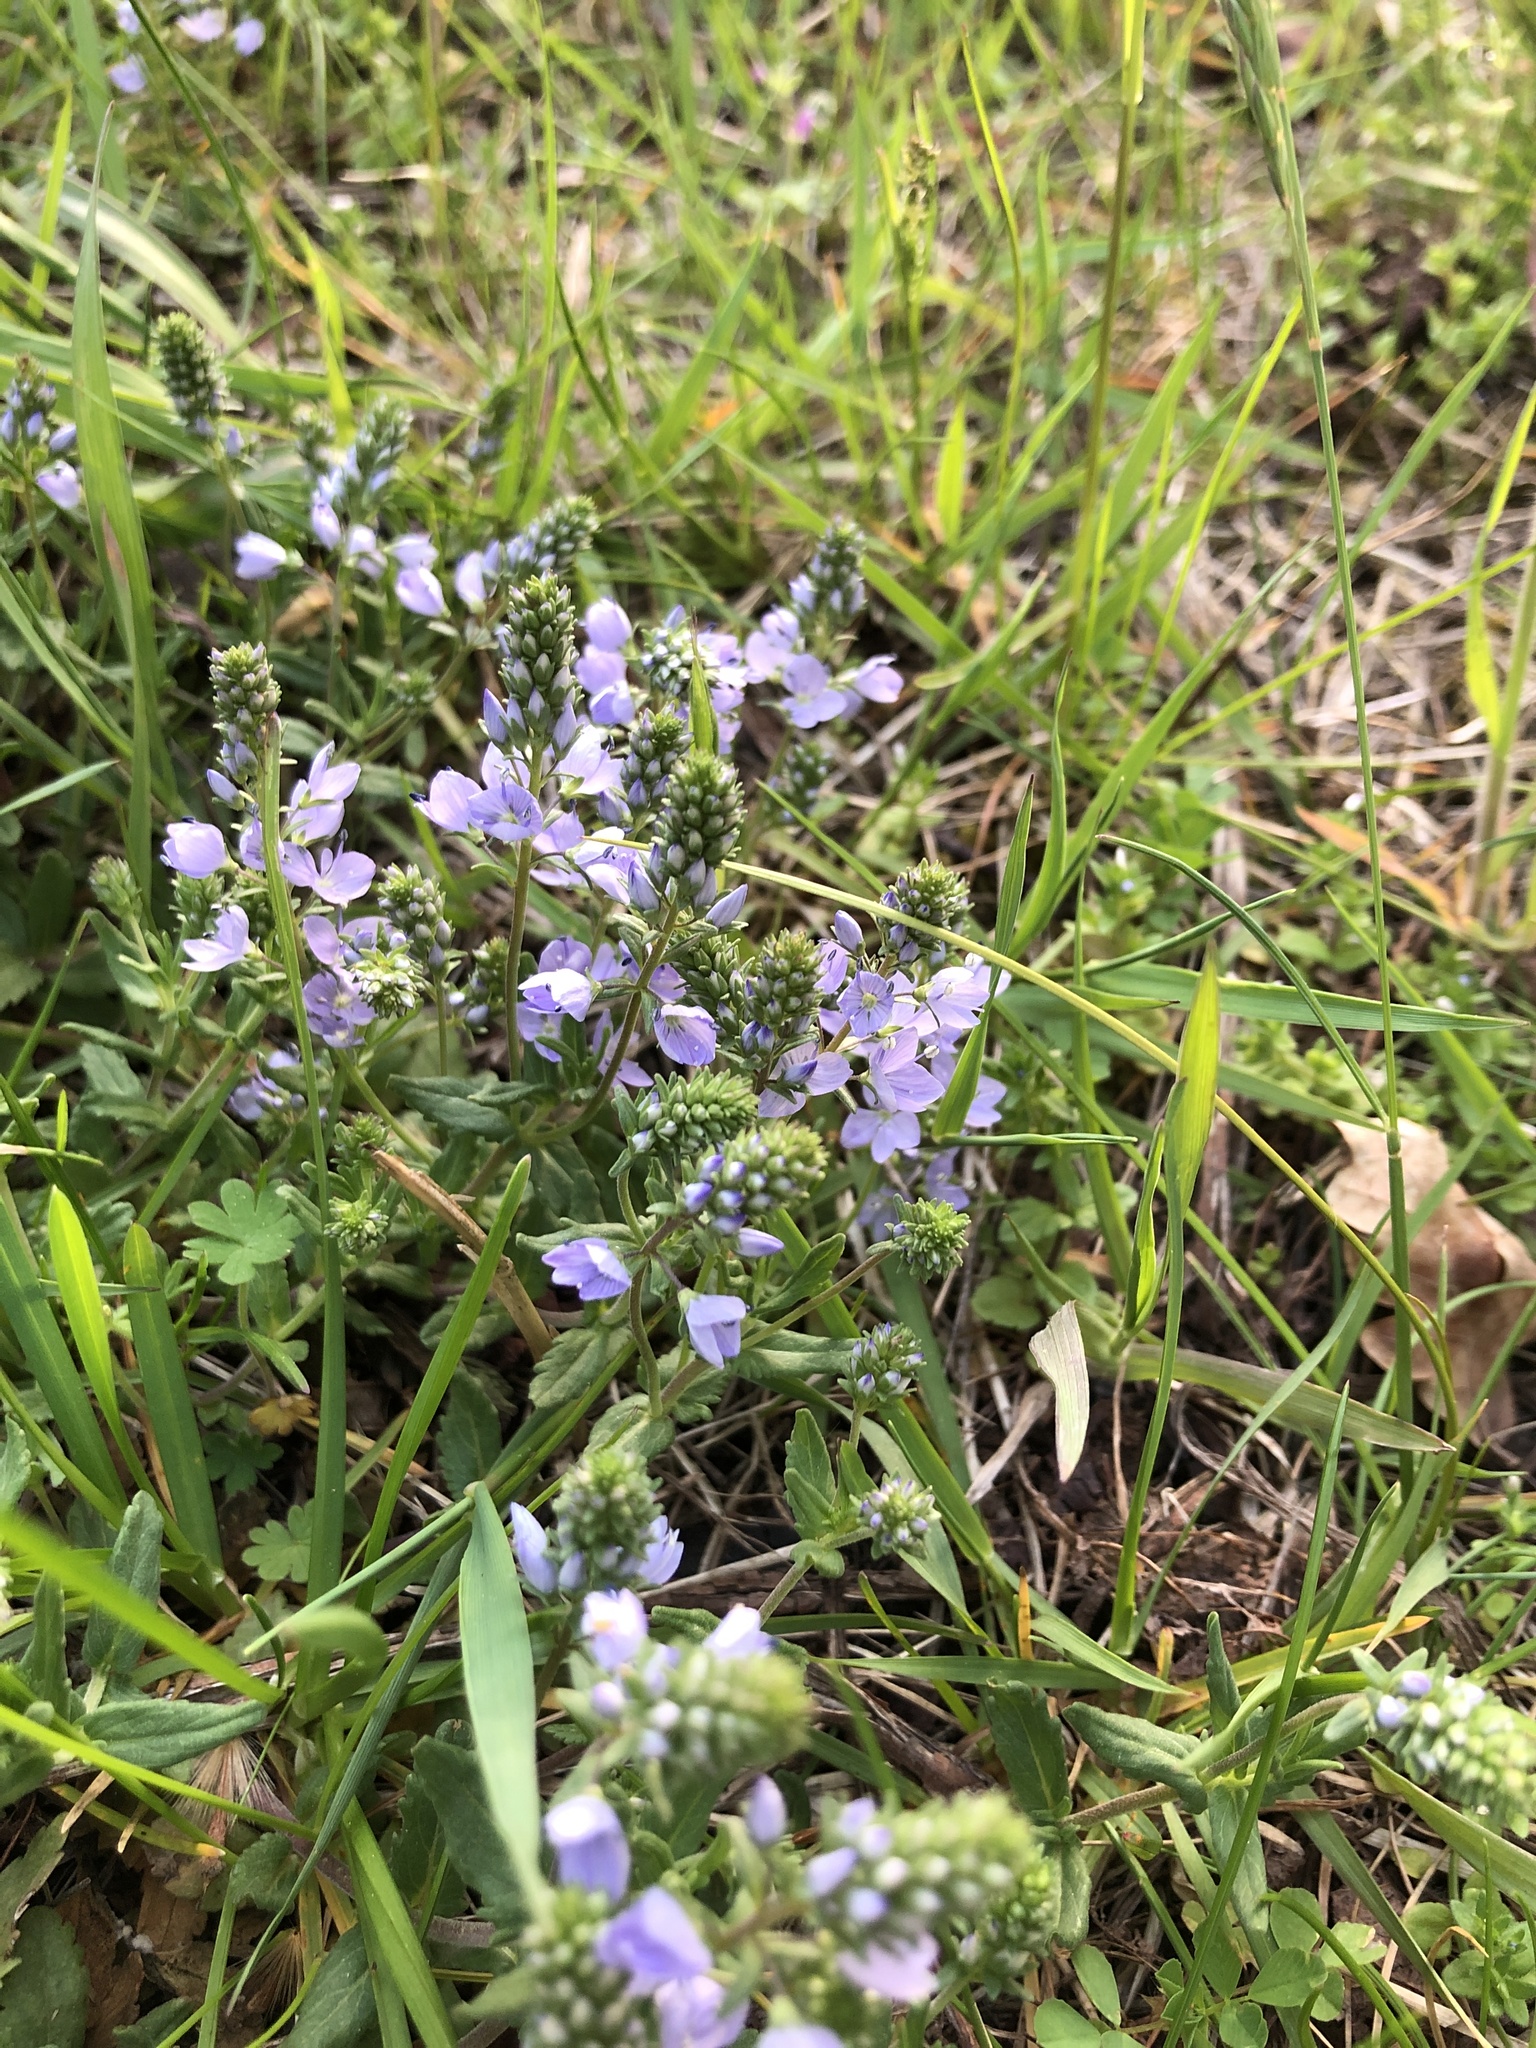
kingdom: Plantae
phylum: Tracheophyta
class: Magnoliopsida
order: Lamiales
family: Plantaginaceae
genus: Veronica
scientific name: Veronica prostrata
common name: Prostrate speedwell
